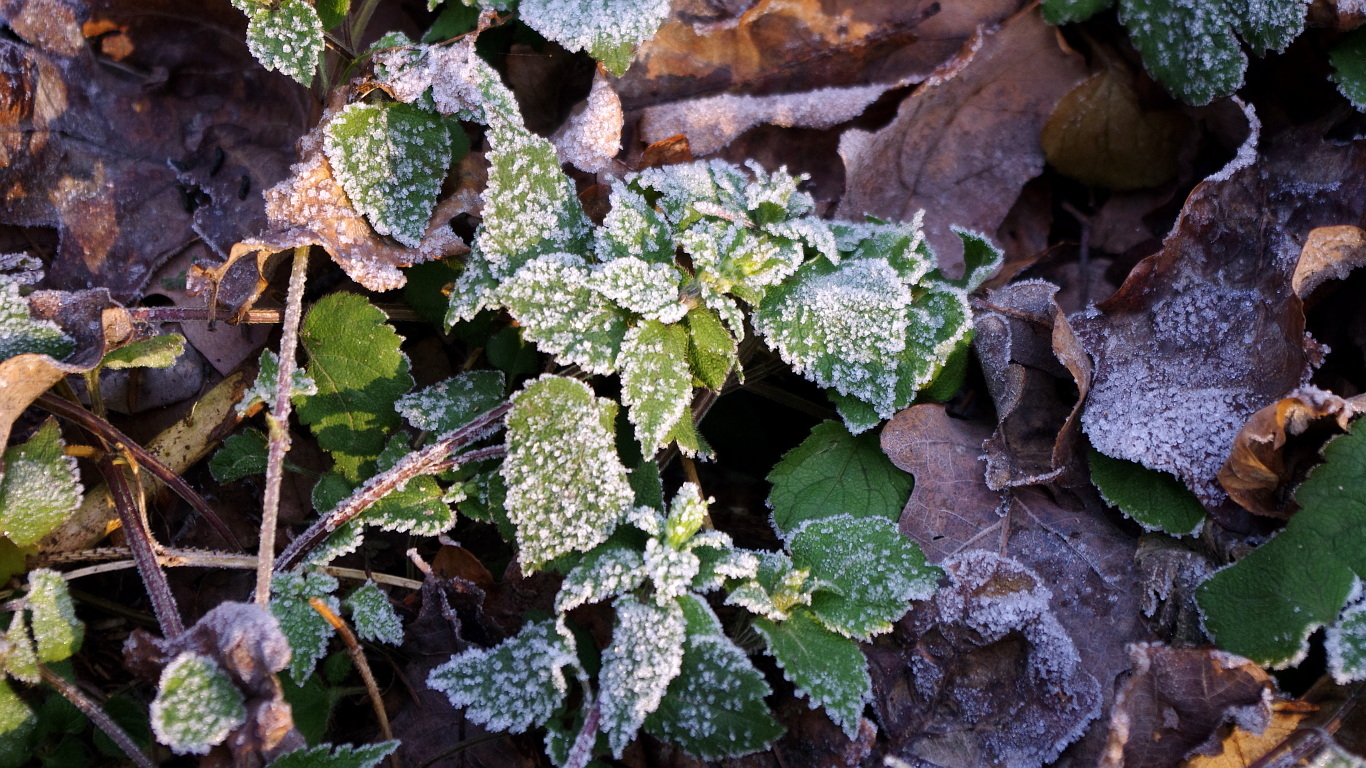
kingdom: Plantae
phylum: Tracheophyta
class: Magnoliopsida
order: Lamiales
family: Lamiaceae
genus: Lamium
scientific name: Lamium galeobdolon
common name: Yellow archangel
